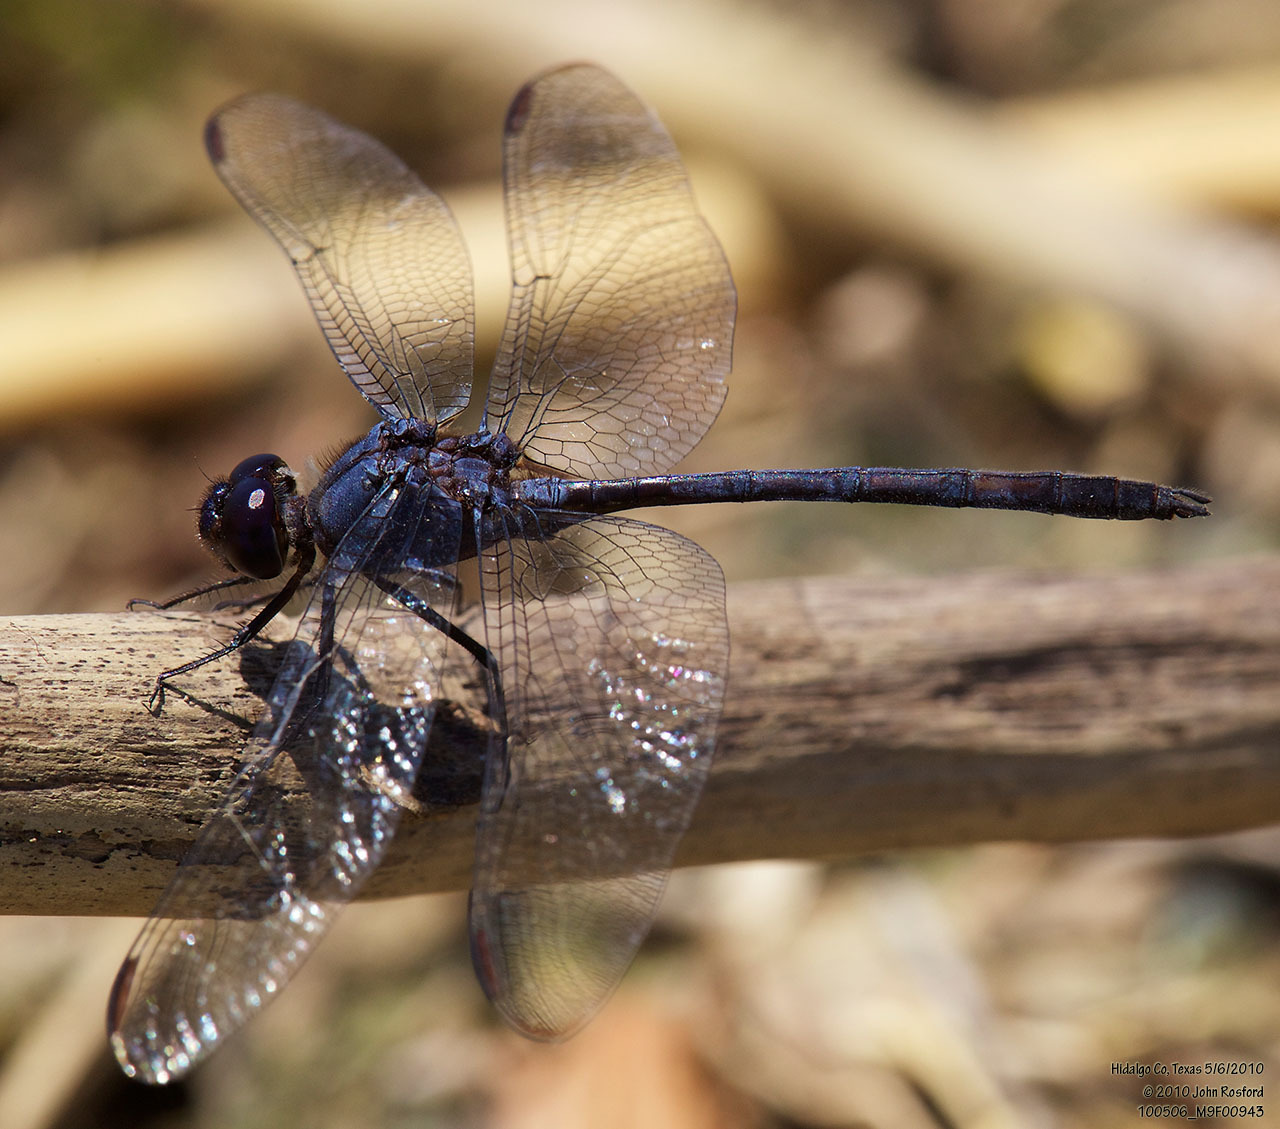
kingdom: Animalia
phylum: Arthropoda
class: Insecta
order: Odonata
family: Libellulidae
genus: Dythemis
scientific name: Dythemis nigrescens
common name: Black setwing
